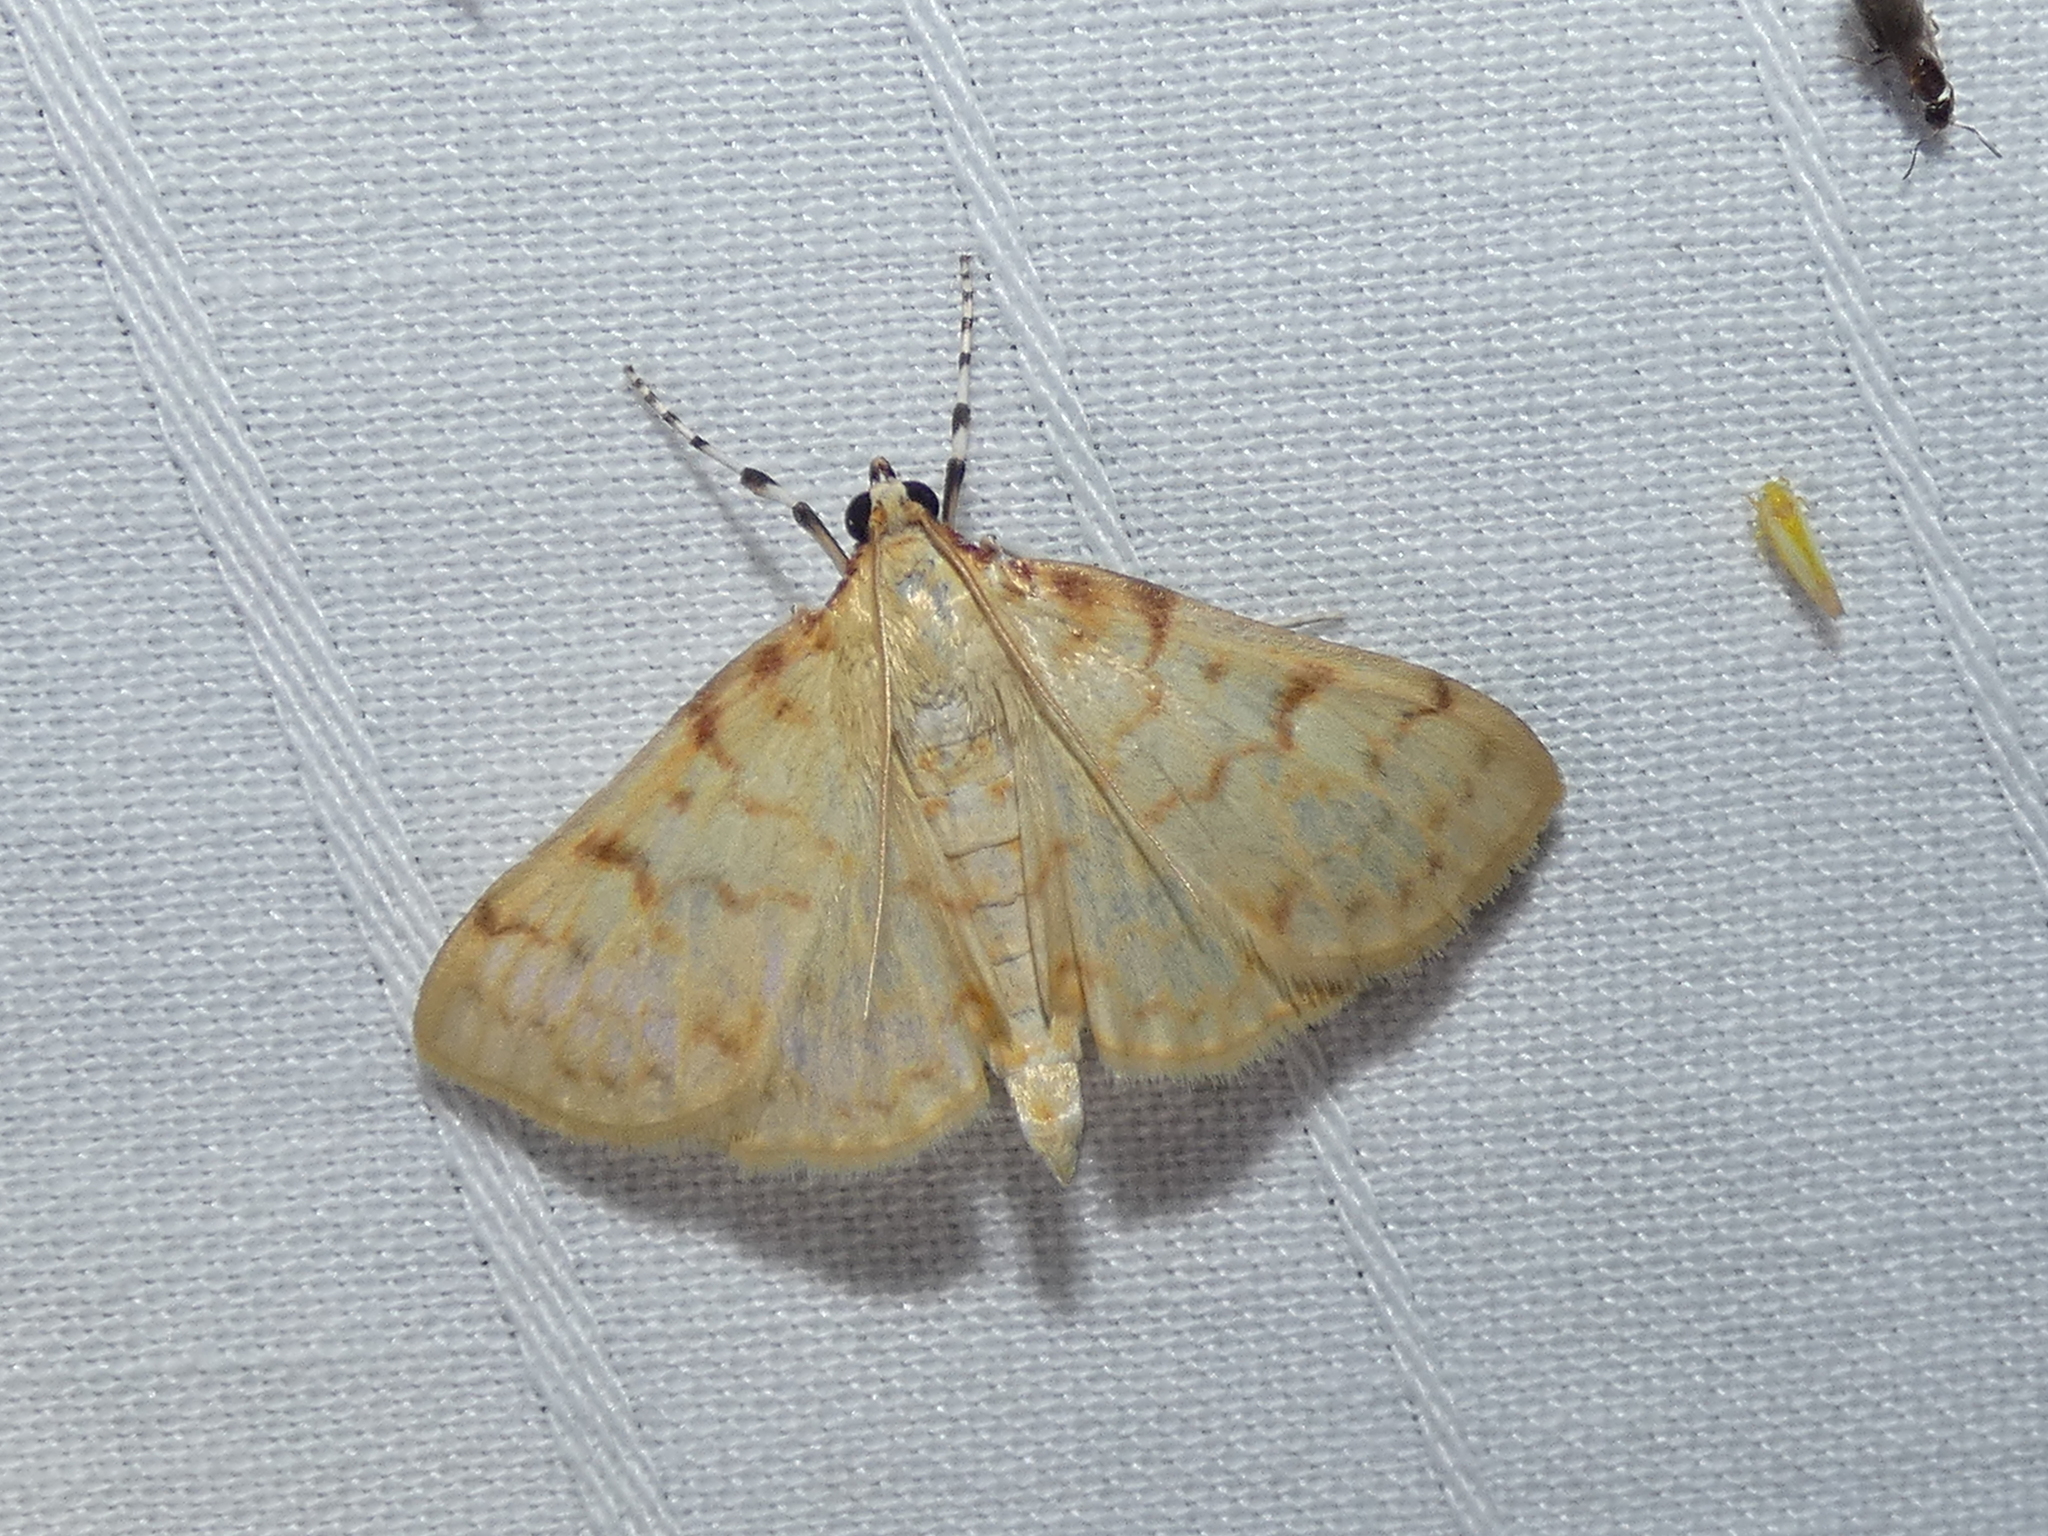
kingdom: Animalia
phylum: Arthropoda
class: Insecta
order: Lepidoptera
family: Crambidae
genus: Polygrammodes
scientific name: Polygrammodes flavidalis
